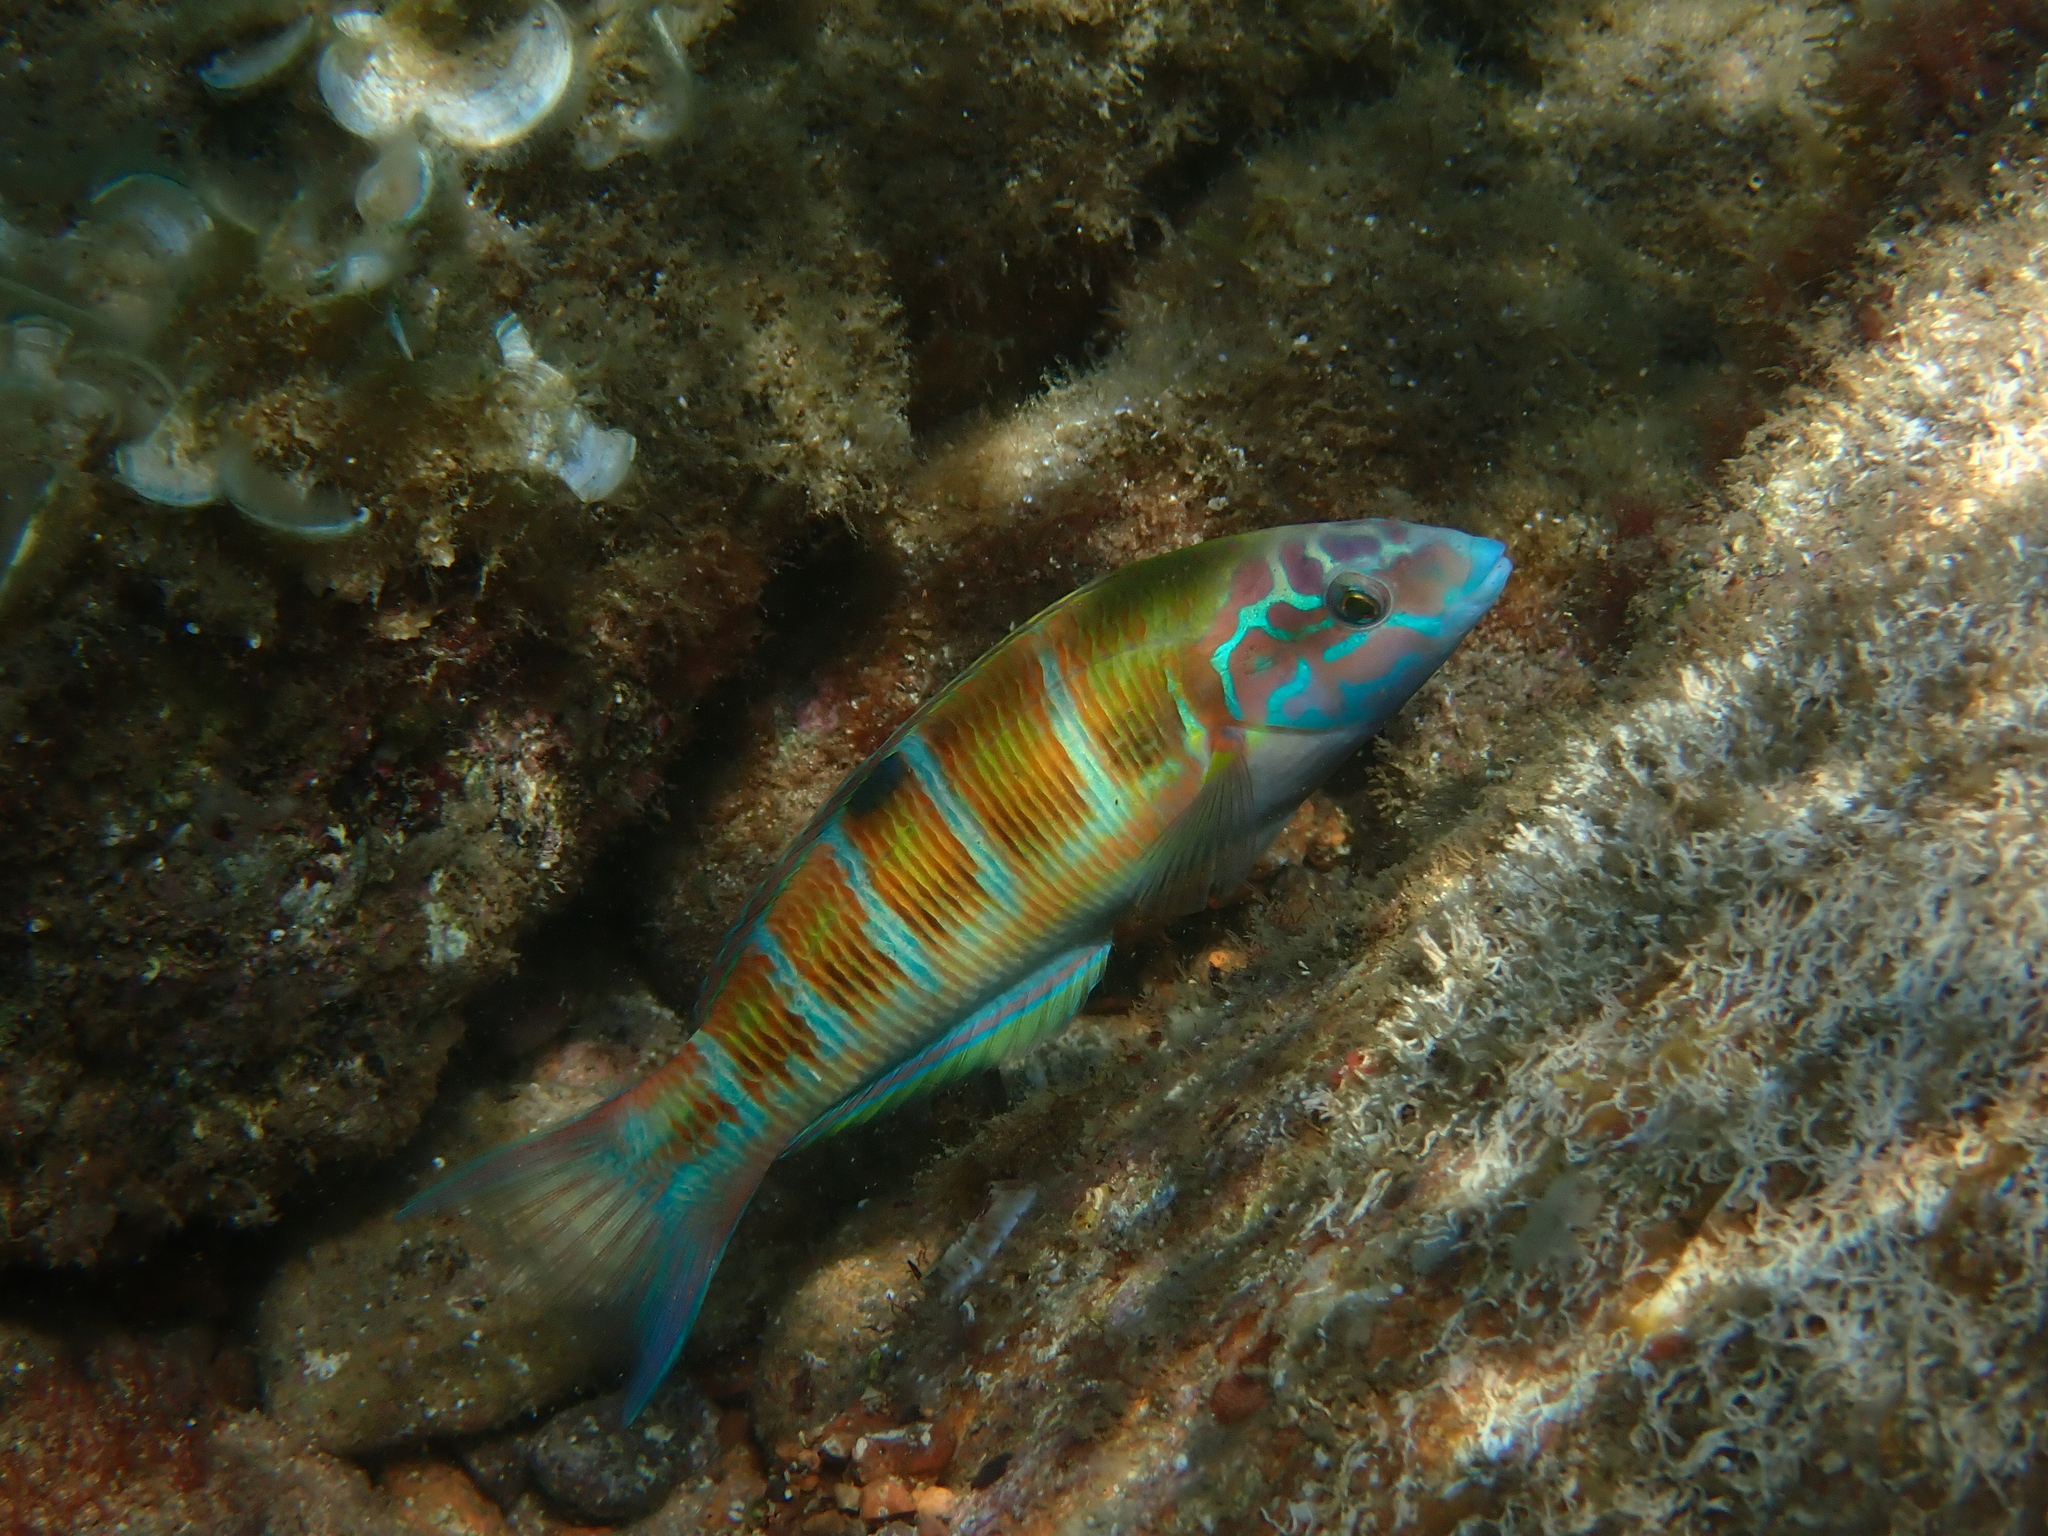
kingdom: Animalia
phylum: Chordata
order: Perciformes
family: Labridae
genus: Thalassoma
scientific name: Thalassoma pavo
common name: Ornate wrasse
